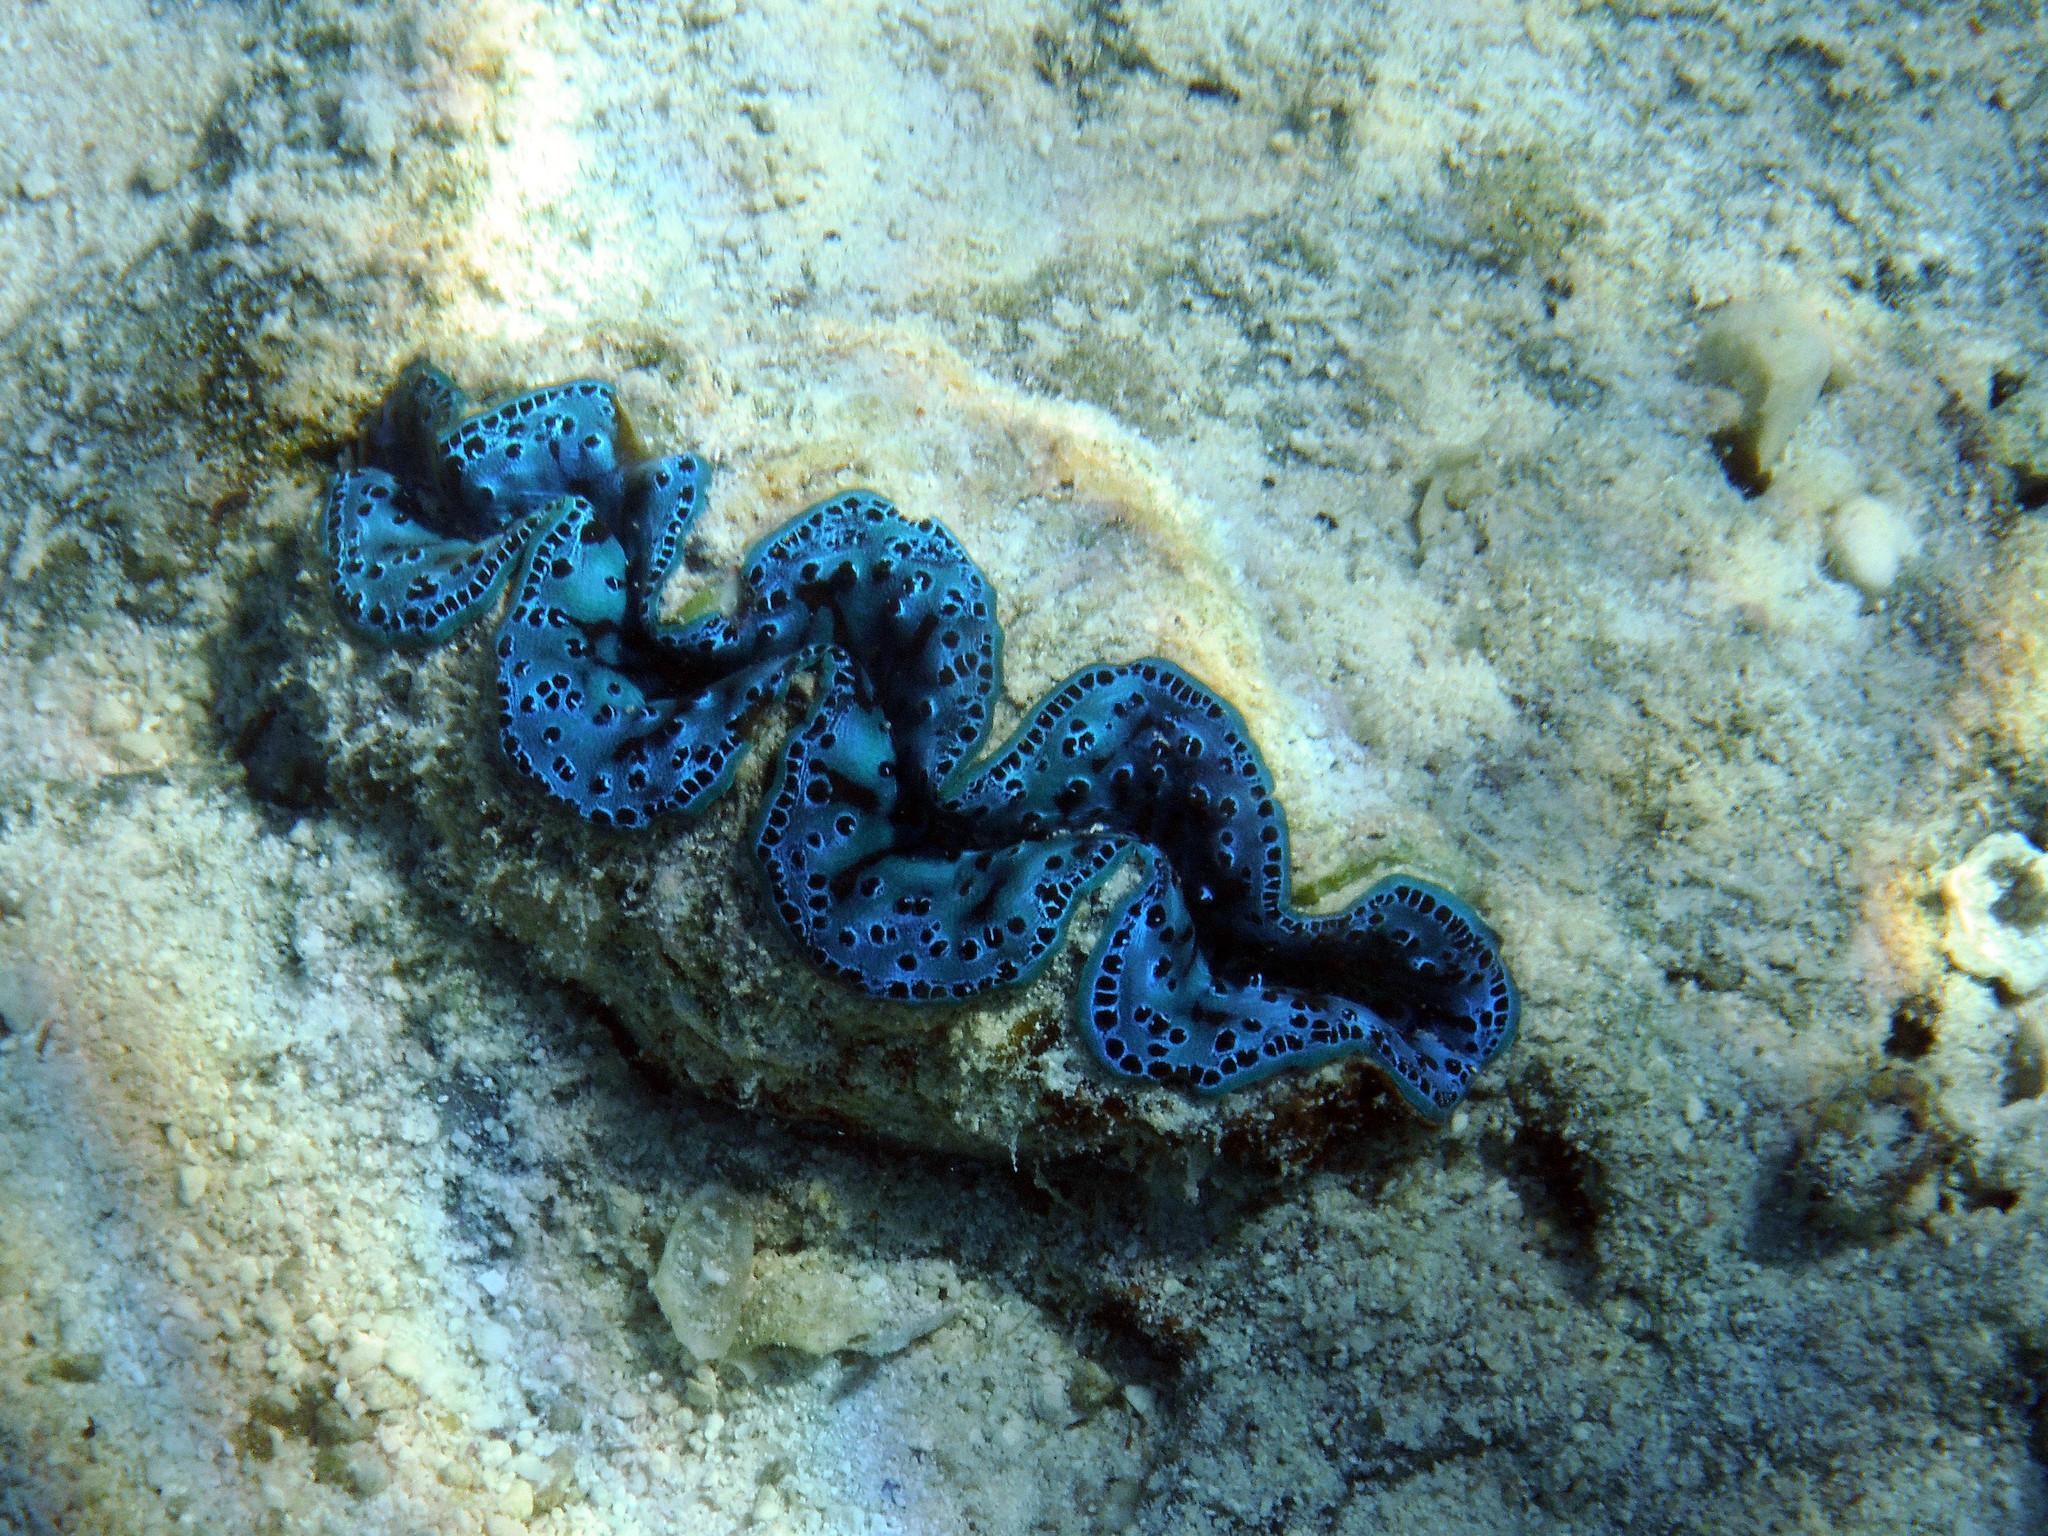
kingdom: Animalia
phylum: Mollusca
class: Bivalvia
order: Cardiida
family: Cardiidae
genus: Tridacna
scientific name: Tridacna maxima
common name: Small giant clam
